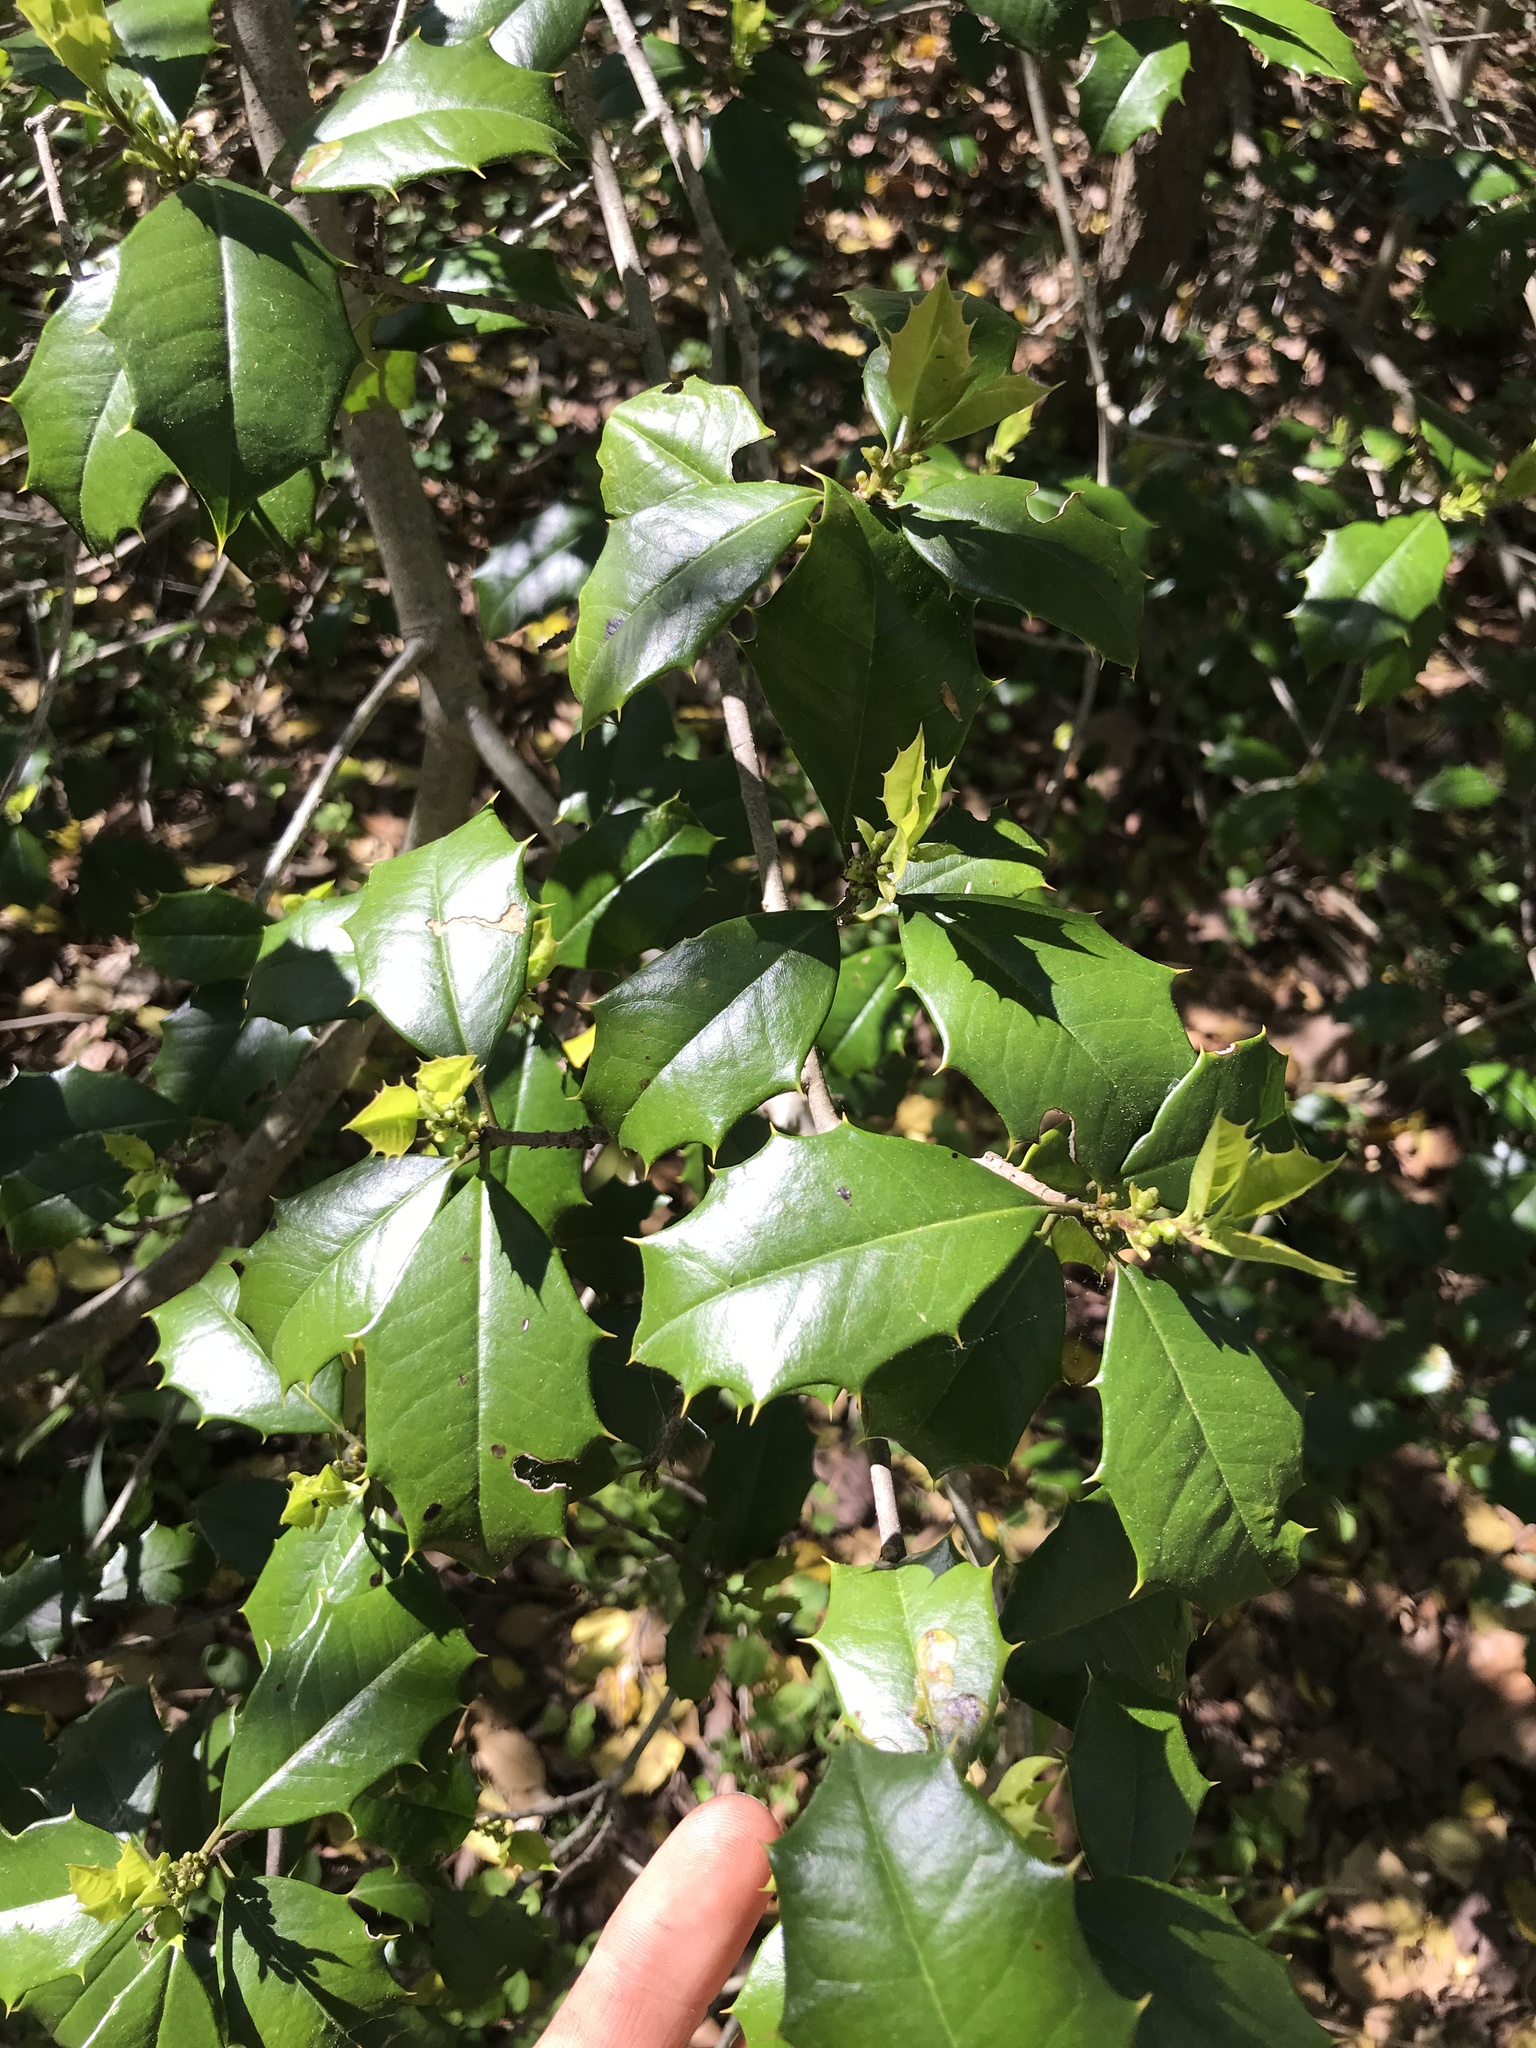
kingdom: Plantae
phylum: Tracheophyta
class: Magnoliopsida
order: Aquifoliales
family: Aquifoliaceae
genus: Ilex
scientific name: Ilex opaca
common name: American holly
